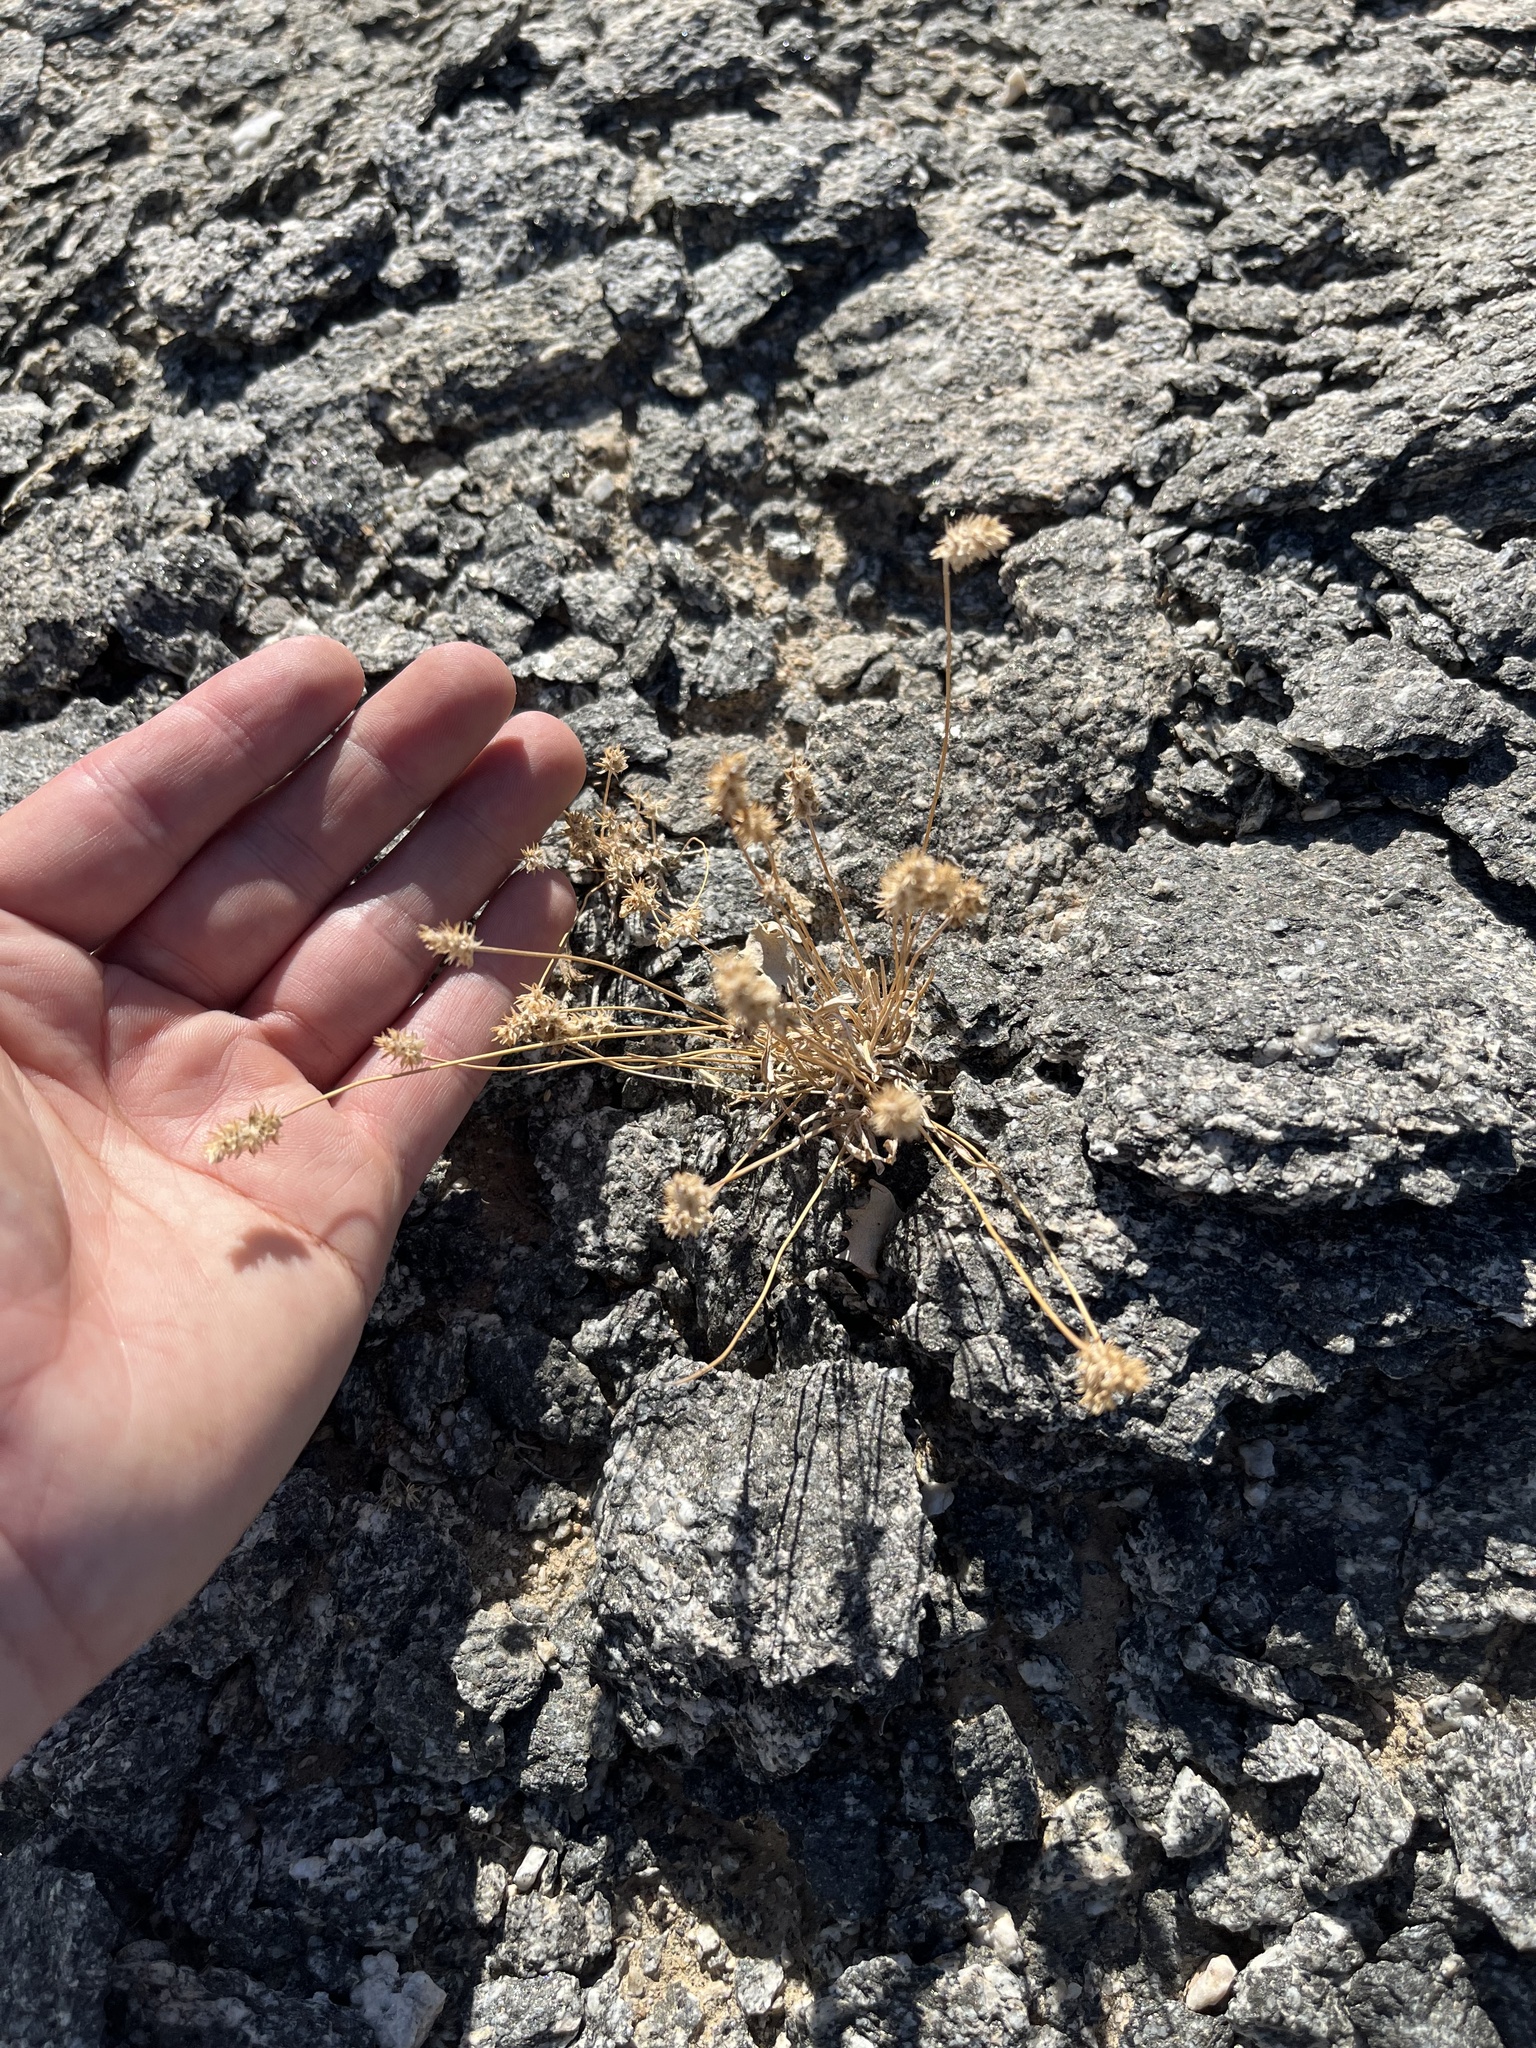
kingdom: Plantae
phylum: Tracheophyta
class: Magnoliopsida
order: Lamiales
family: Plantaginaceae
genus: Plantago
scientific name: Plantago ovata
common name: Blond plantain
